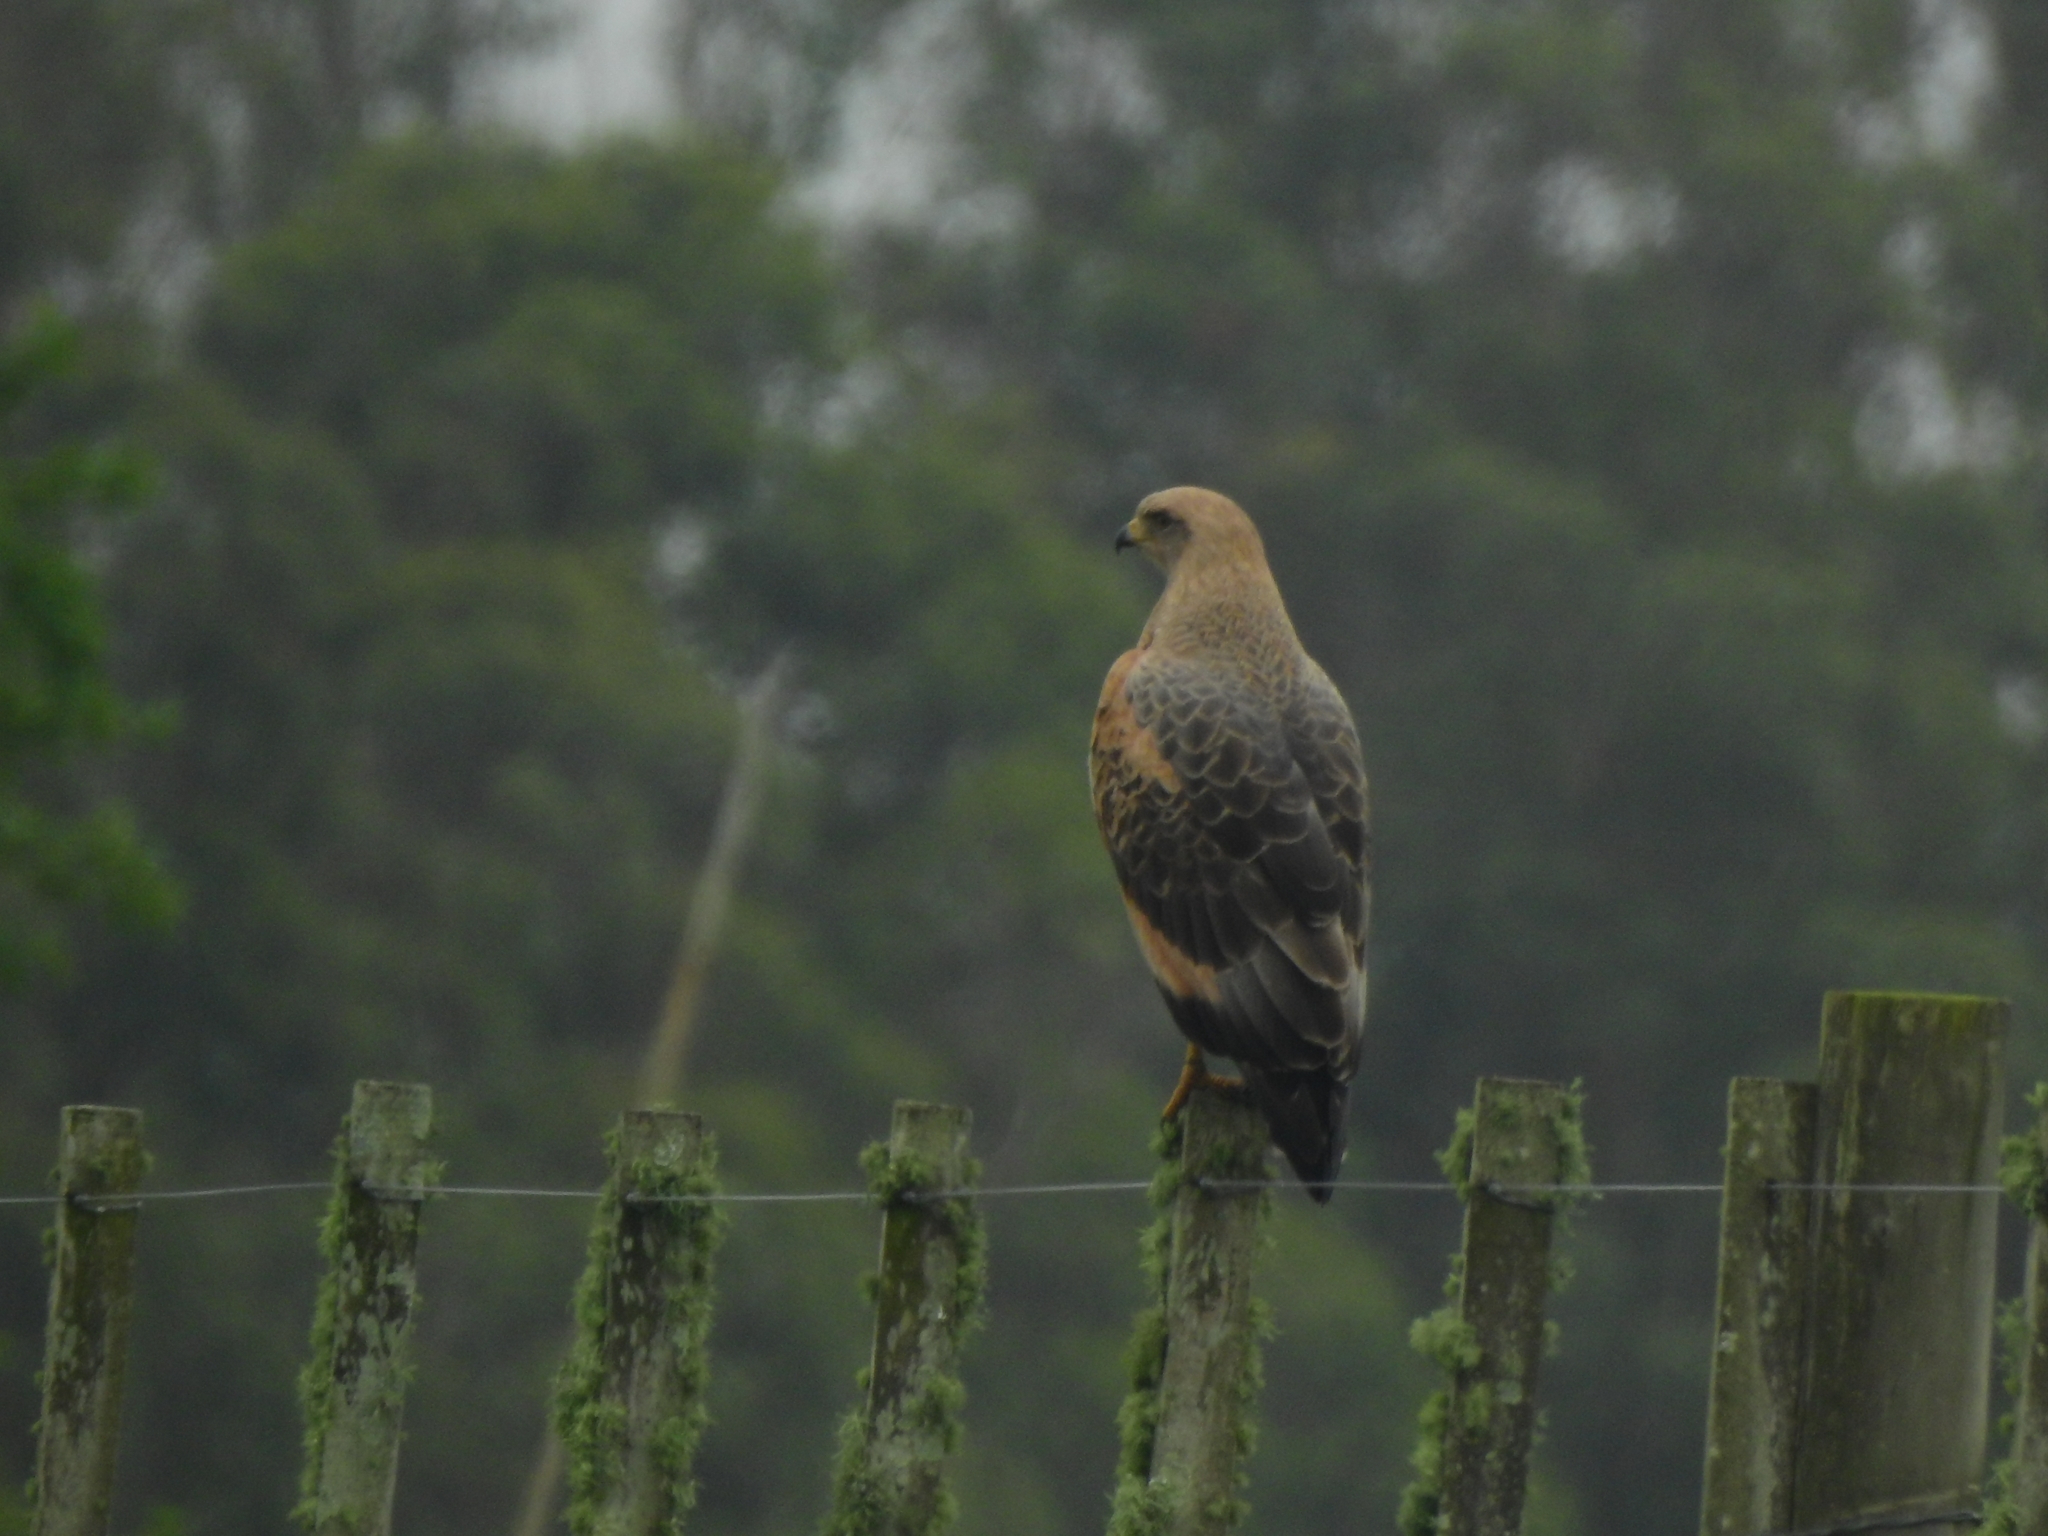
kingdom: Animalia
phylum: Chordata
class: Aves
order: Accipitriformes
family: Accipitridae
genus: Buteogallus
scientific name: Buteogallus meridionalis
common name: Savanna hawk
